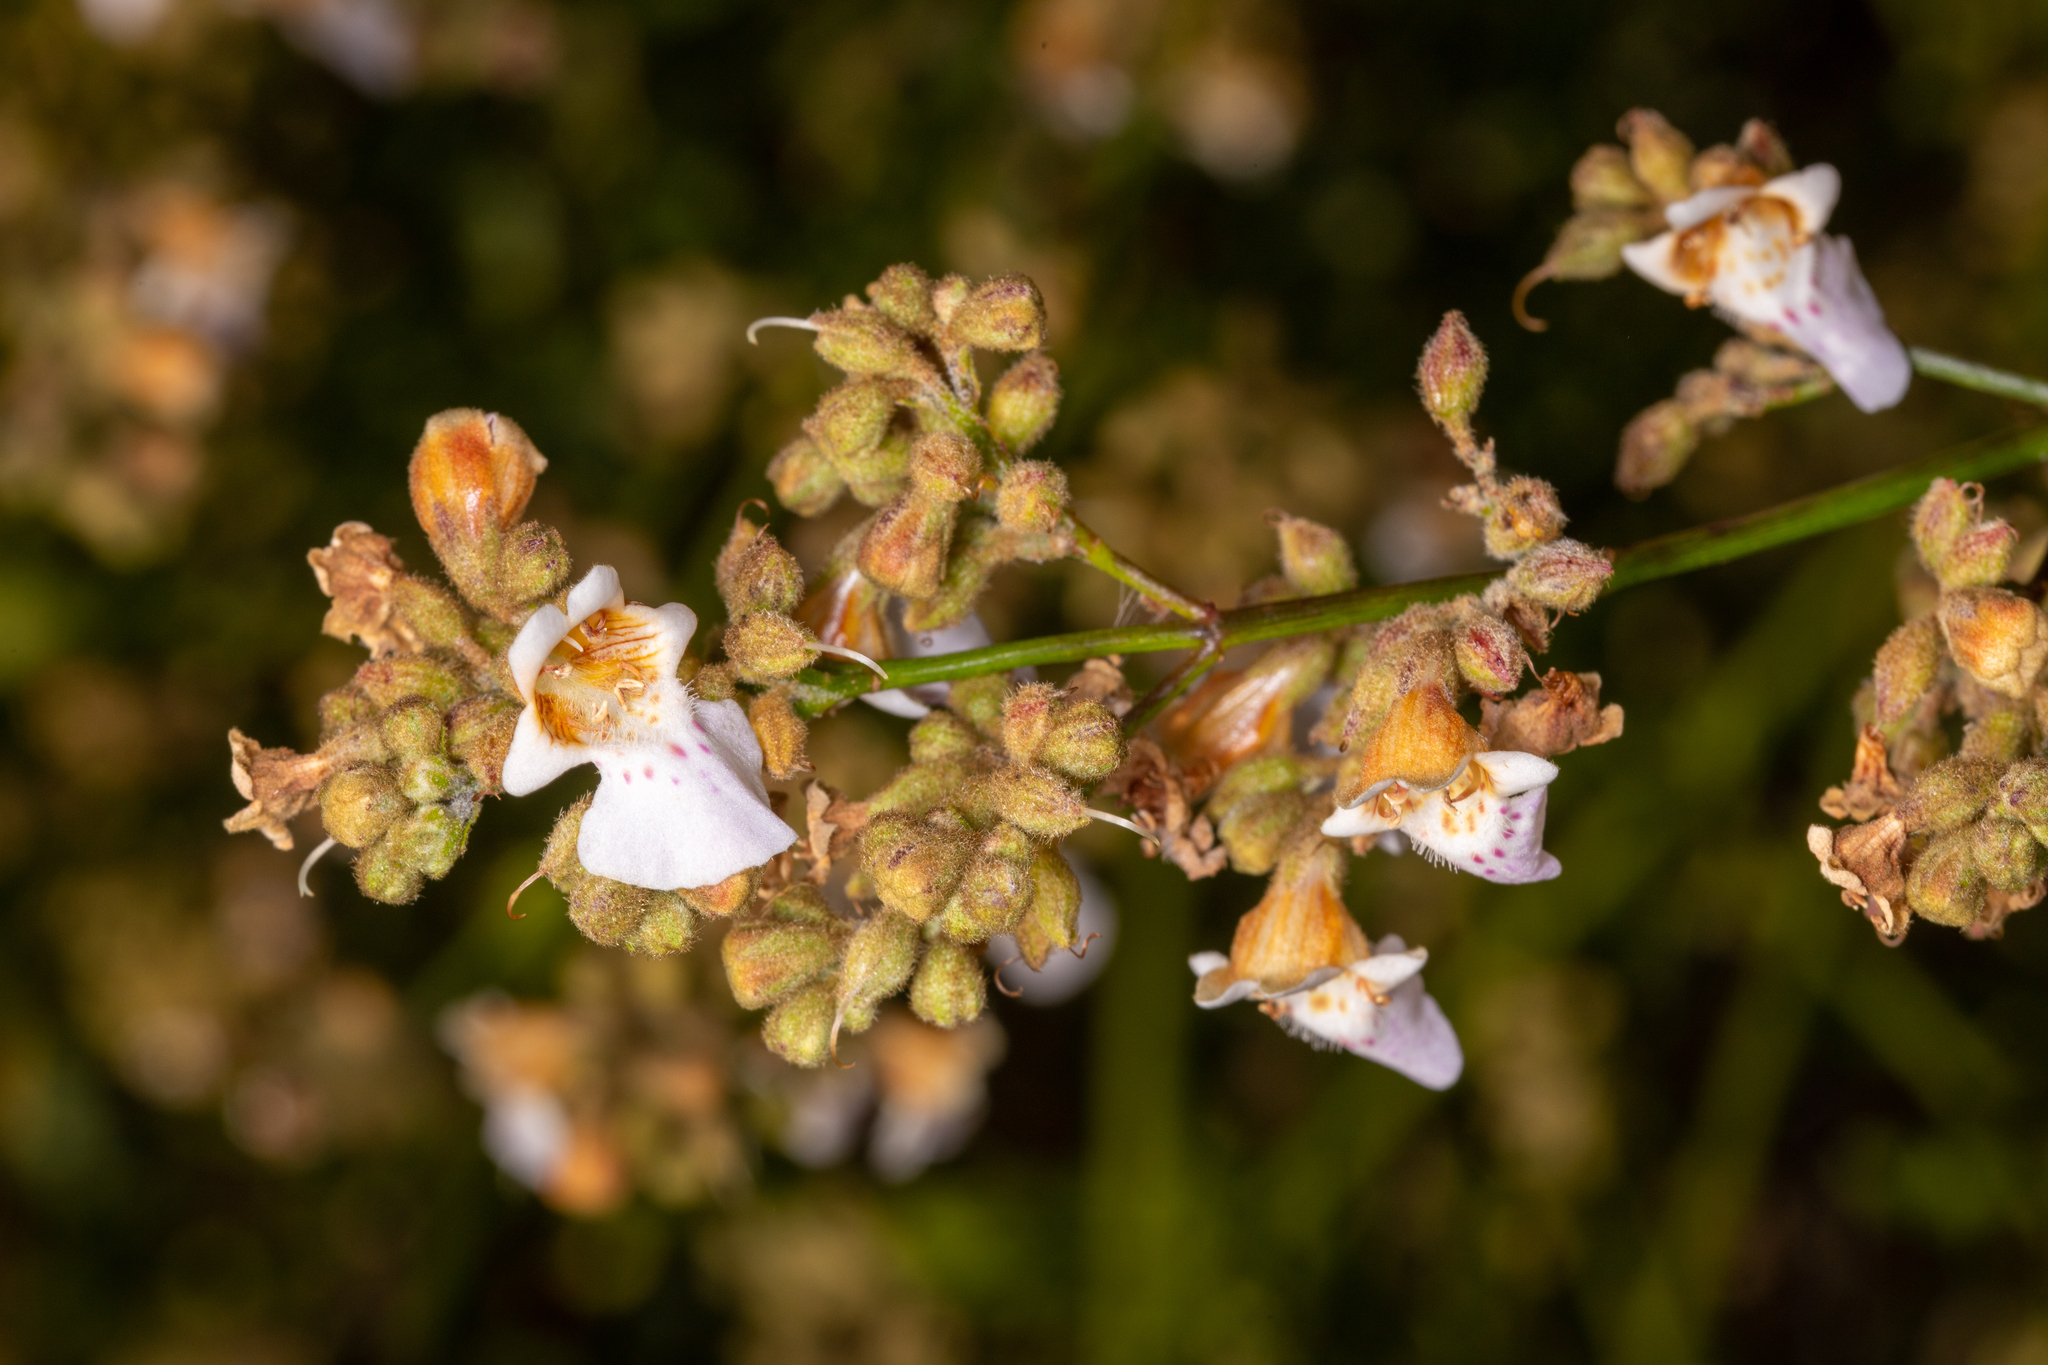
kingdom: Plantae
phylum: Tracheophyta
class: Magnoliopsida
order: Lamiales
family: Lamiaceae
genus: Quoya
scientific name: Quoya loxocarpa
